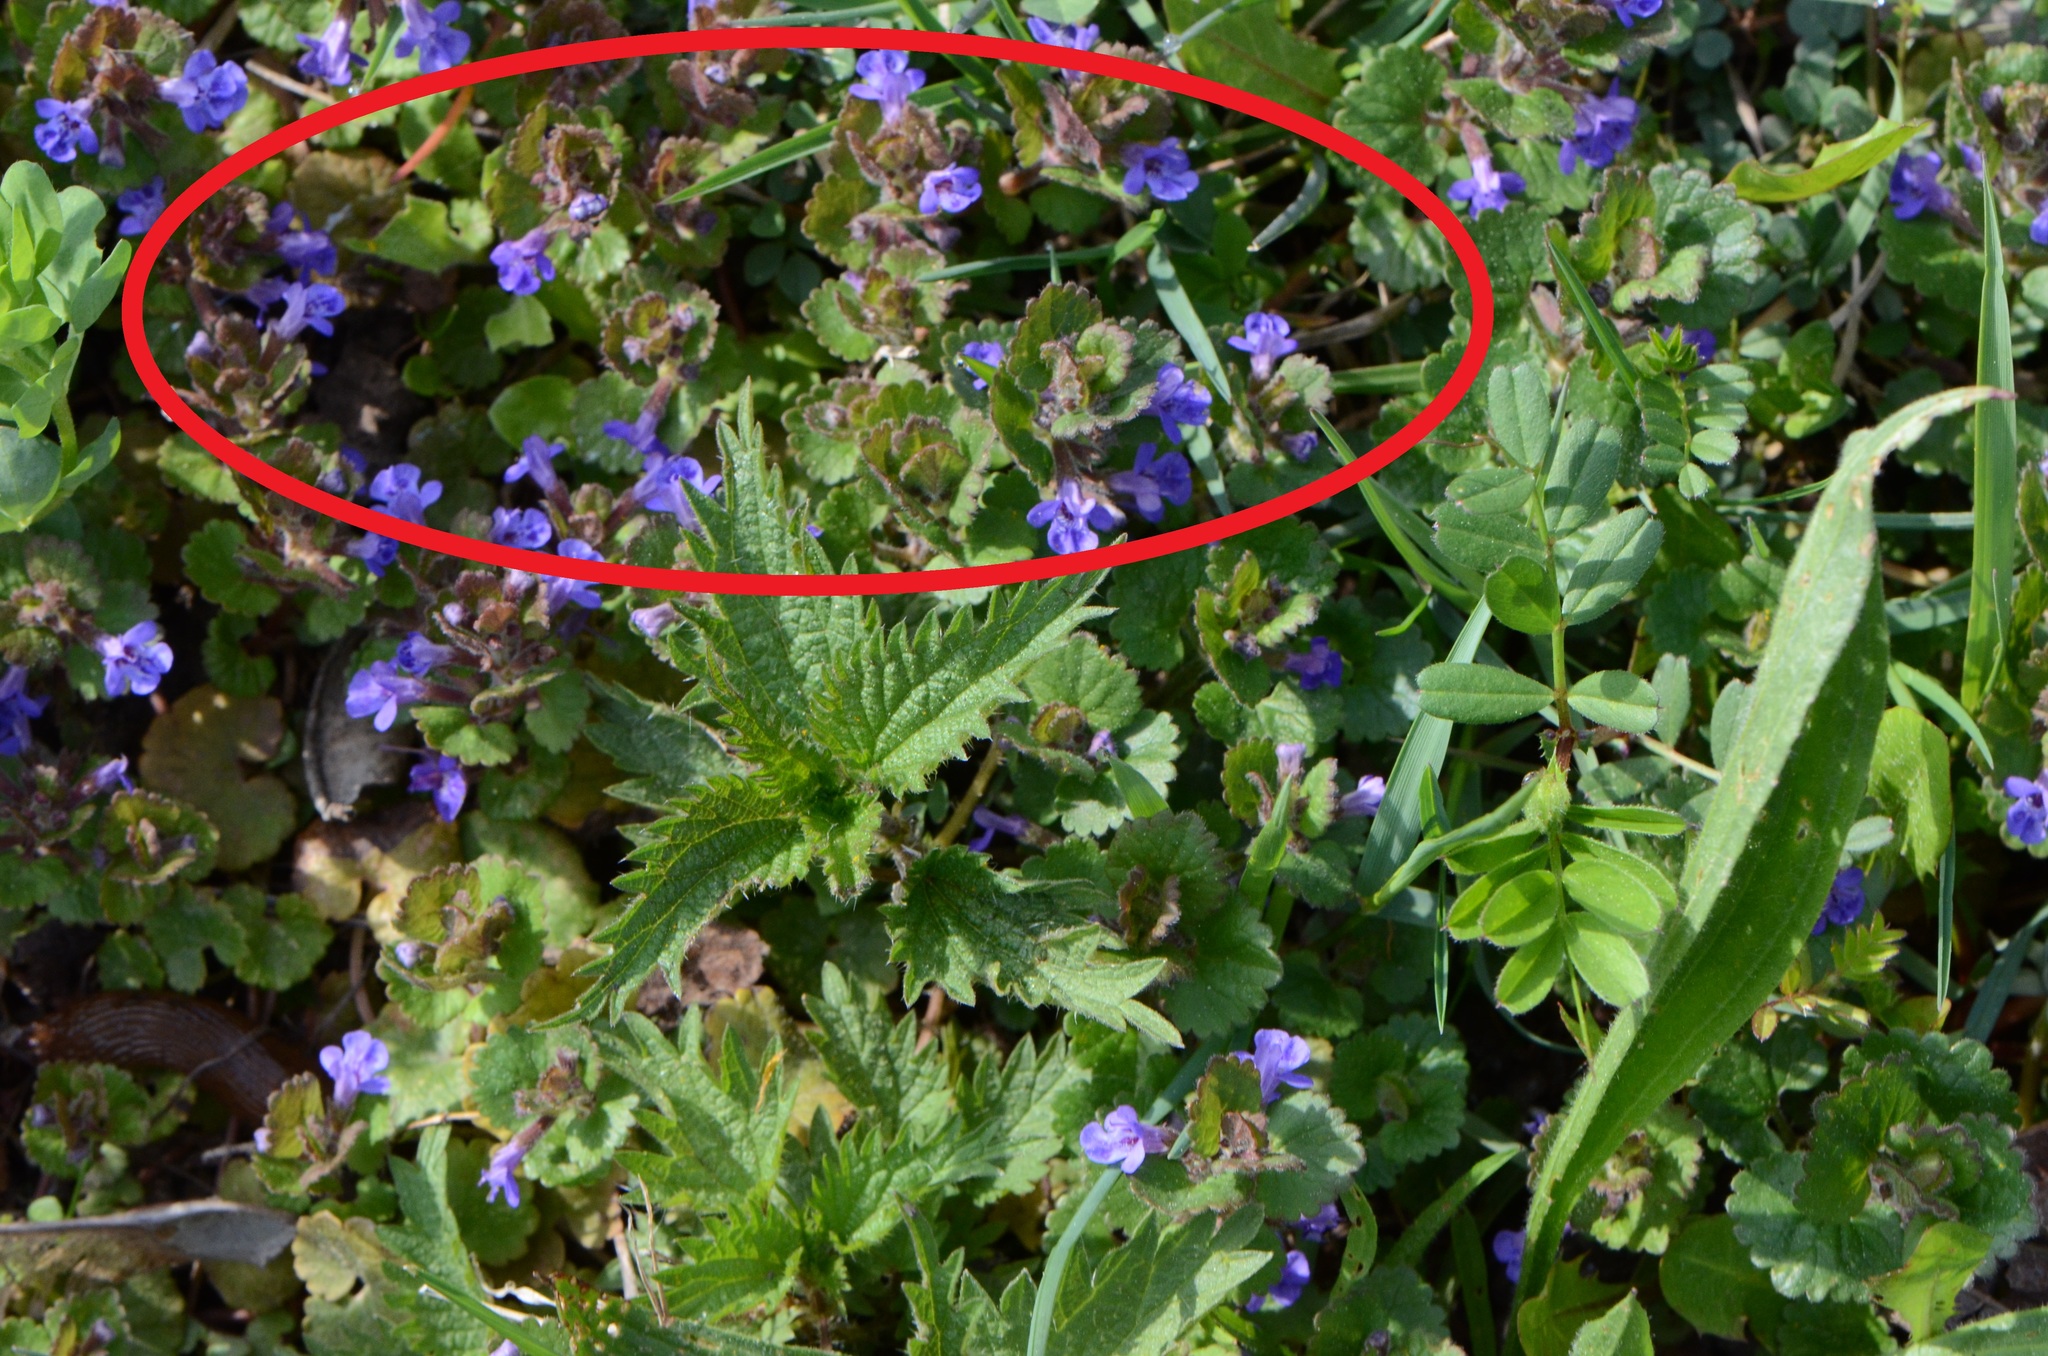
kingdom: Plantae
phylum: Tracheophyta
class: Magnoliopsida
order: Lamiales
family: Lamiaceae
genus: Glechoma
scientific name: Glechoma hederacea
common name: Ground ivy
